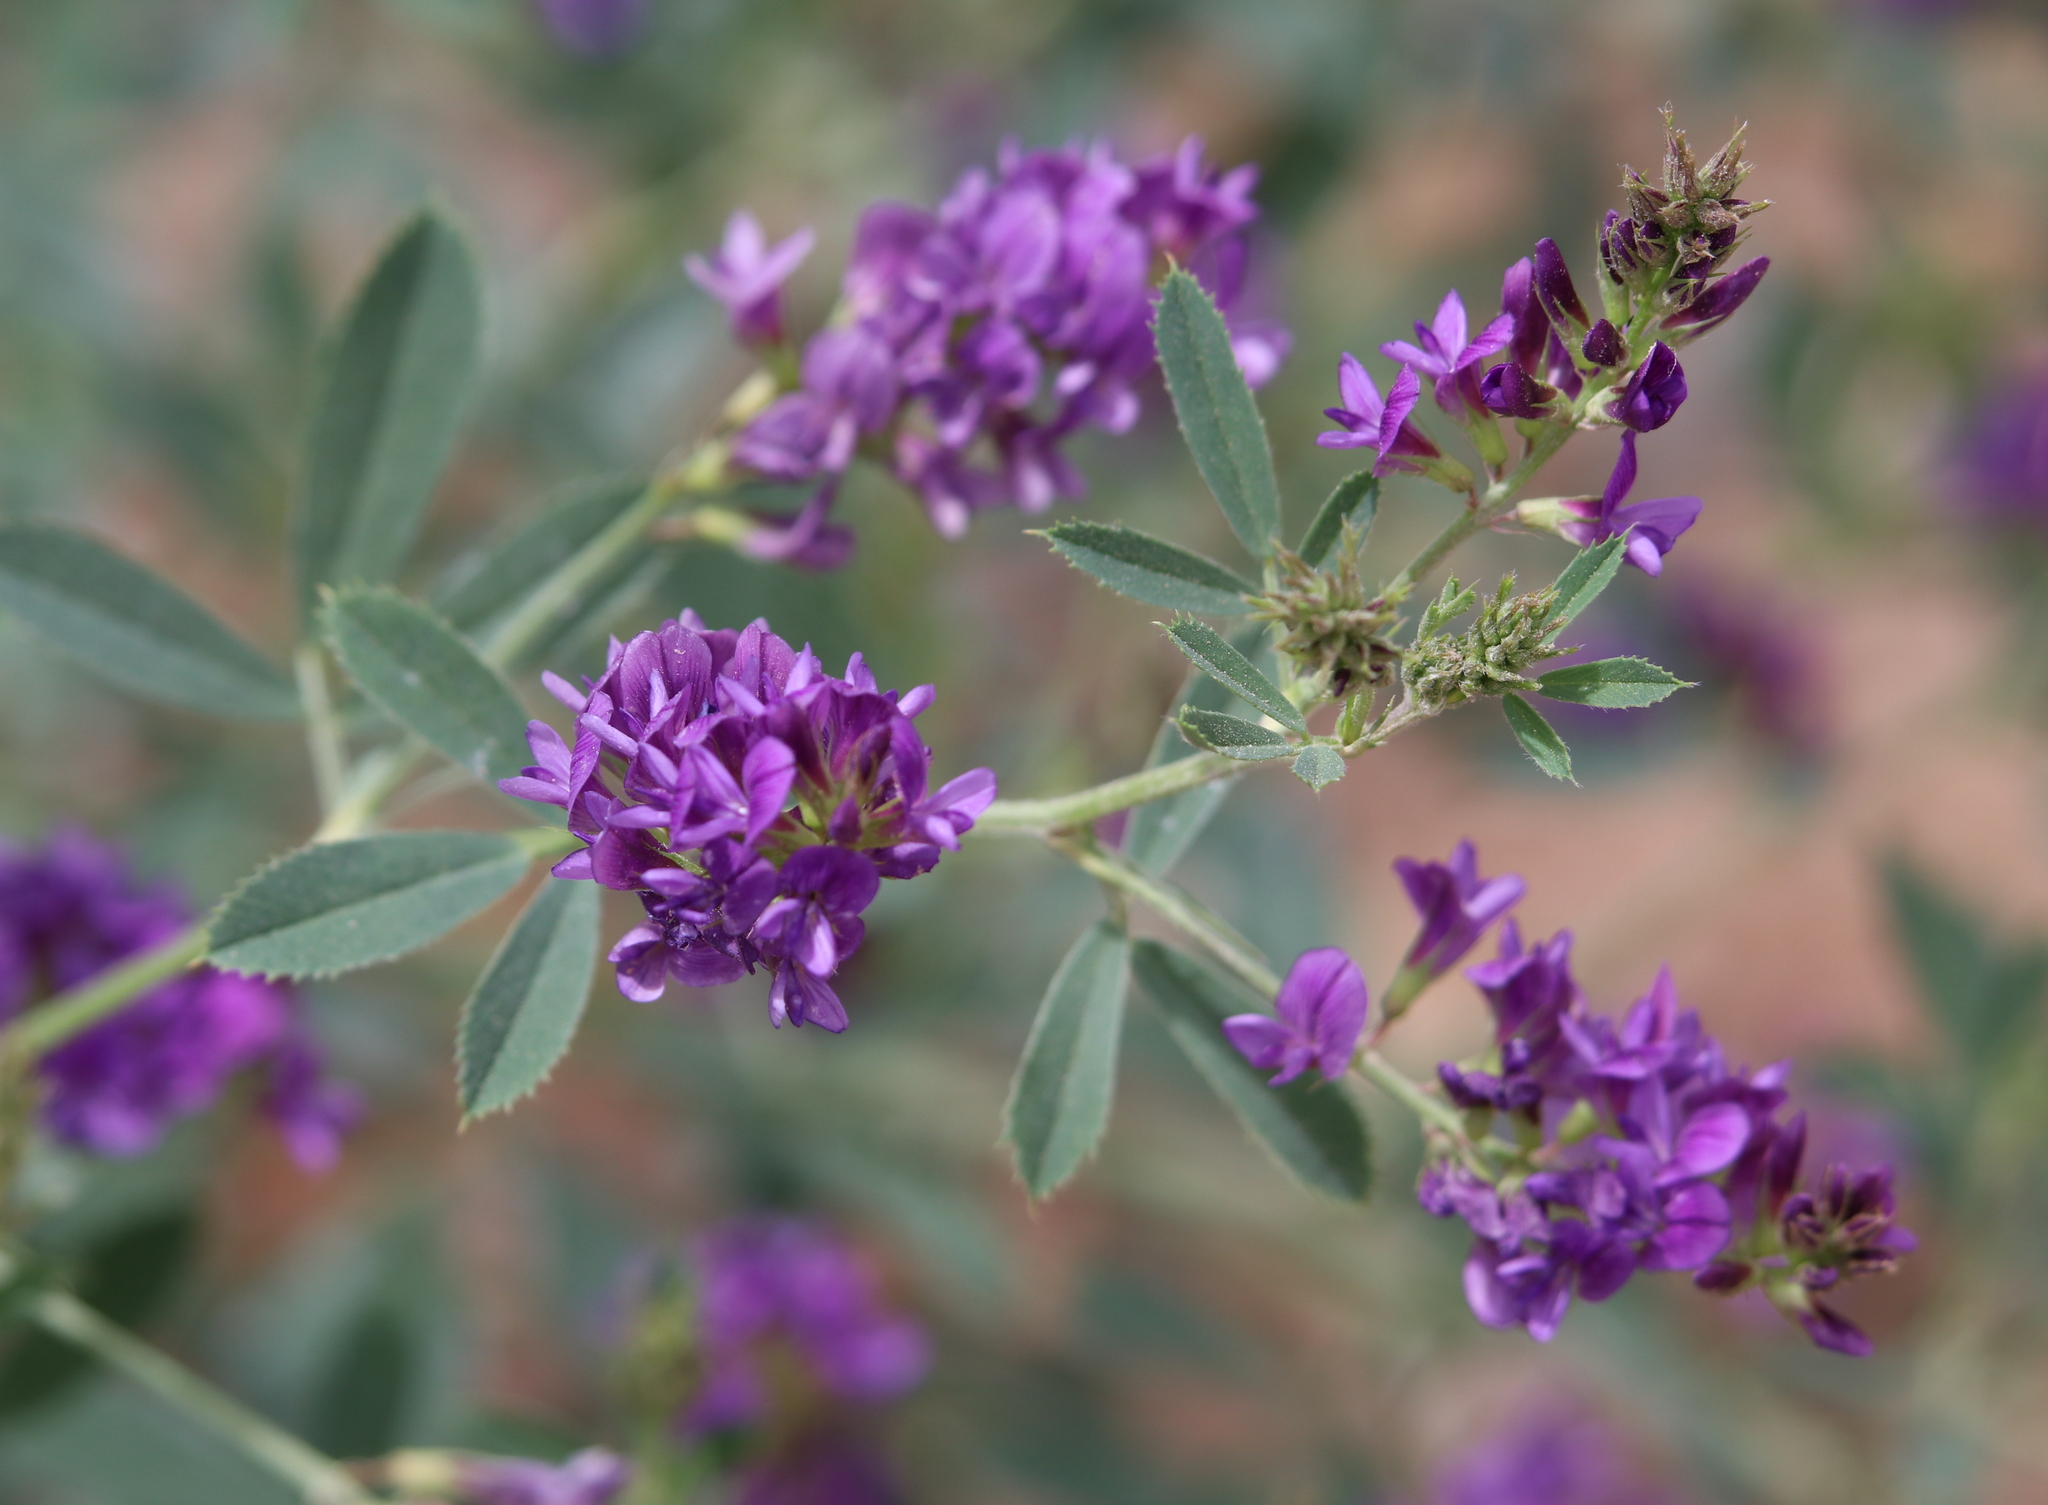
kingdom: Plantae
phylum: Tracheophyta
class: Magnoliopsida
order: Fabales
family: Fabaceae
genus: Medicago
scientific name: Medicago sativa
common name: Alfalfa
